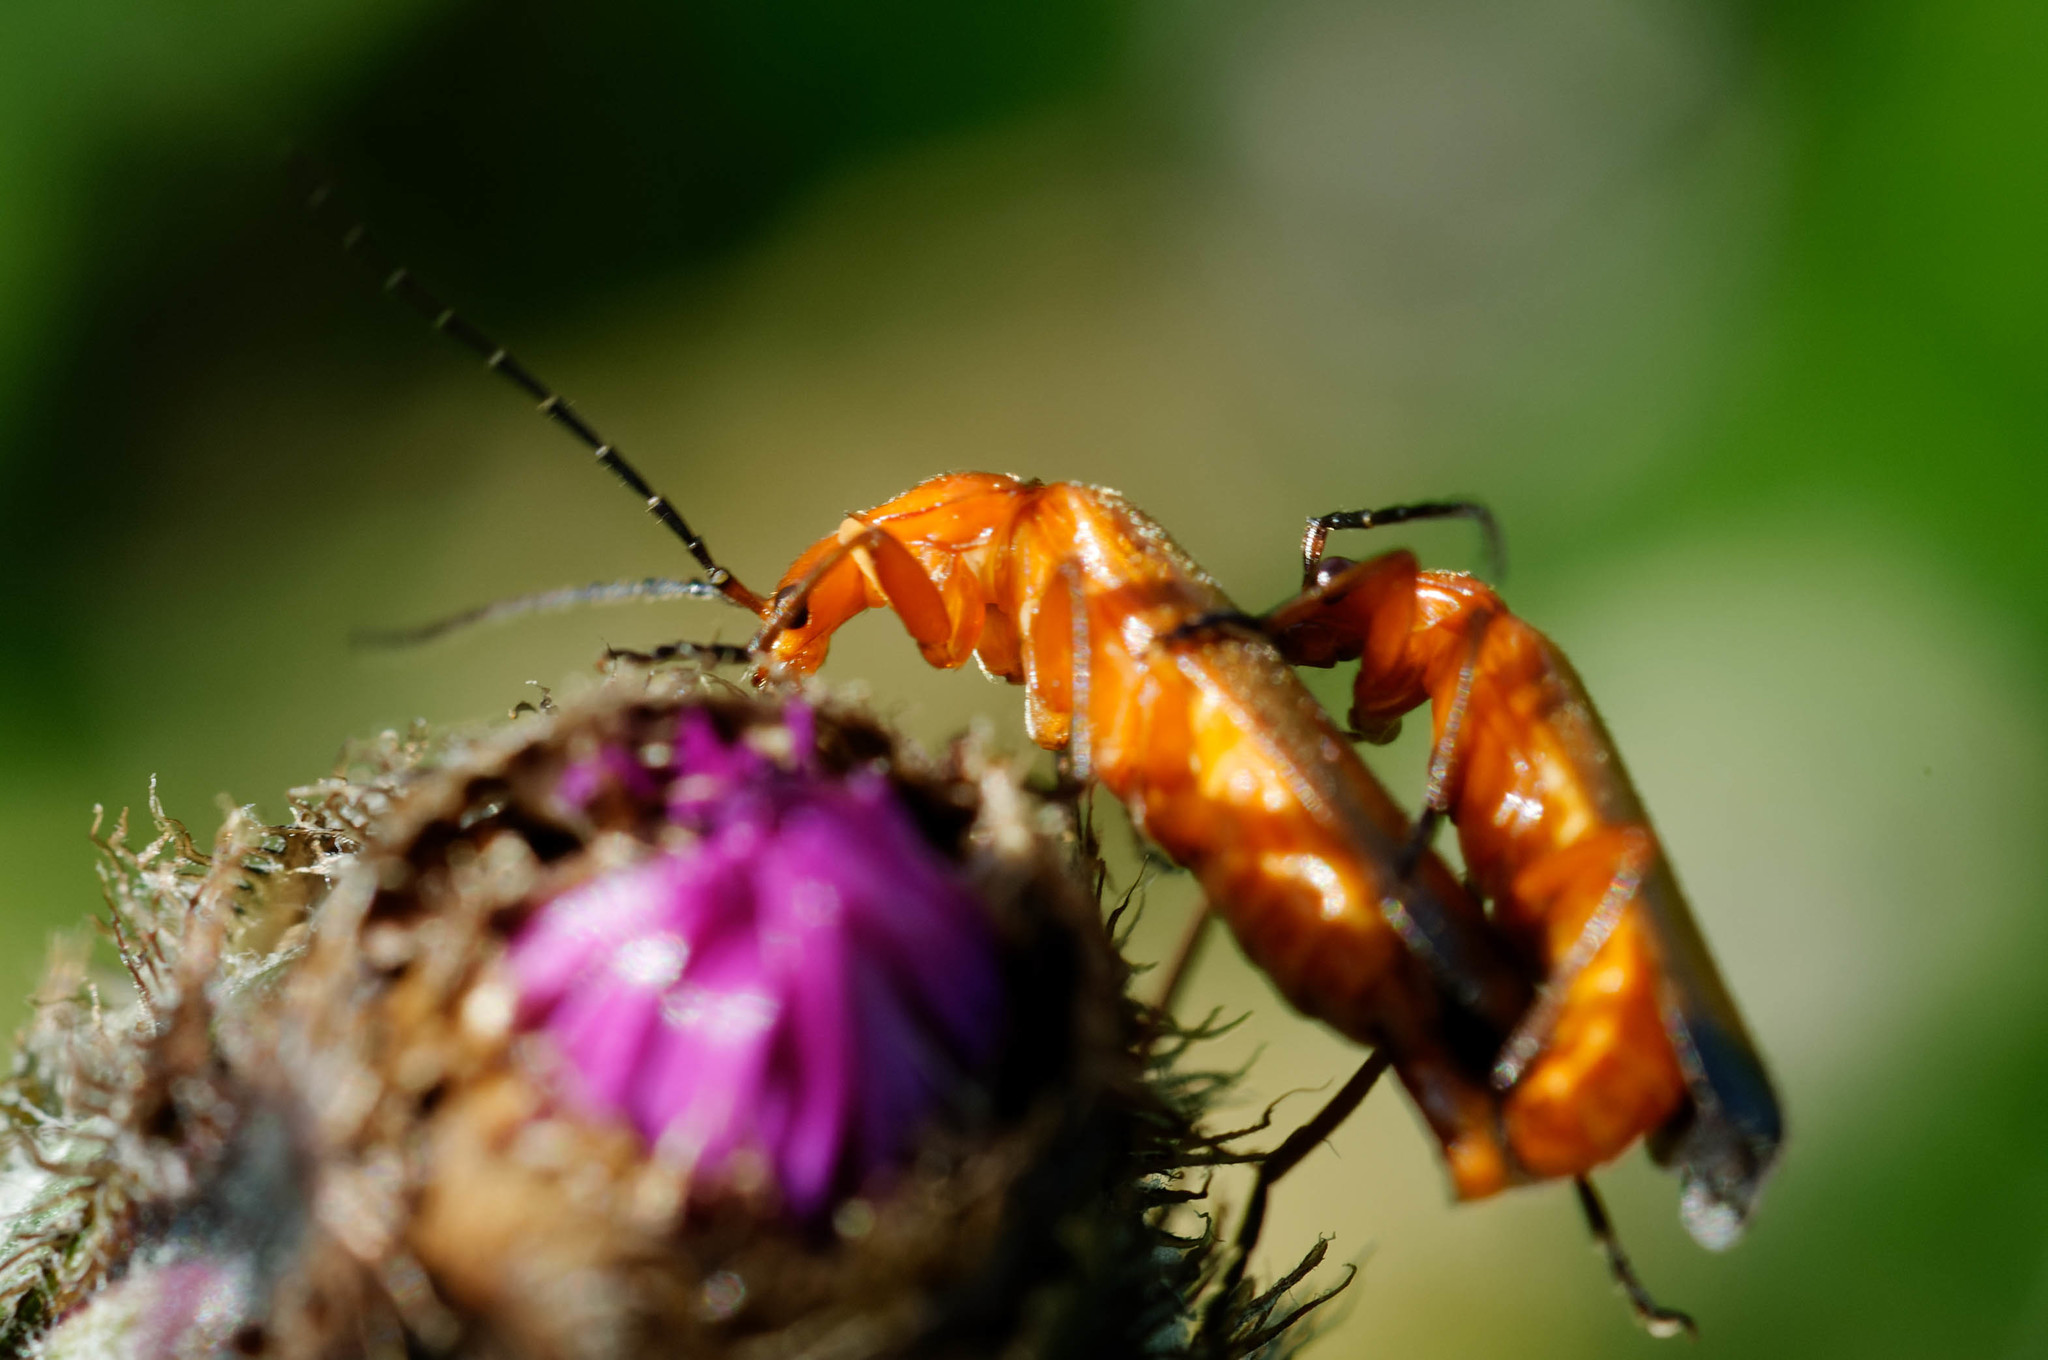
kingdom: Animalia
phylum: Arthropoda
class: Insecta
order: Coleoptera
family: Cantharidae
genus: Rhagonycha
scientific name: Rhagonycha fulva
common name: Common red soldier beetle
